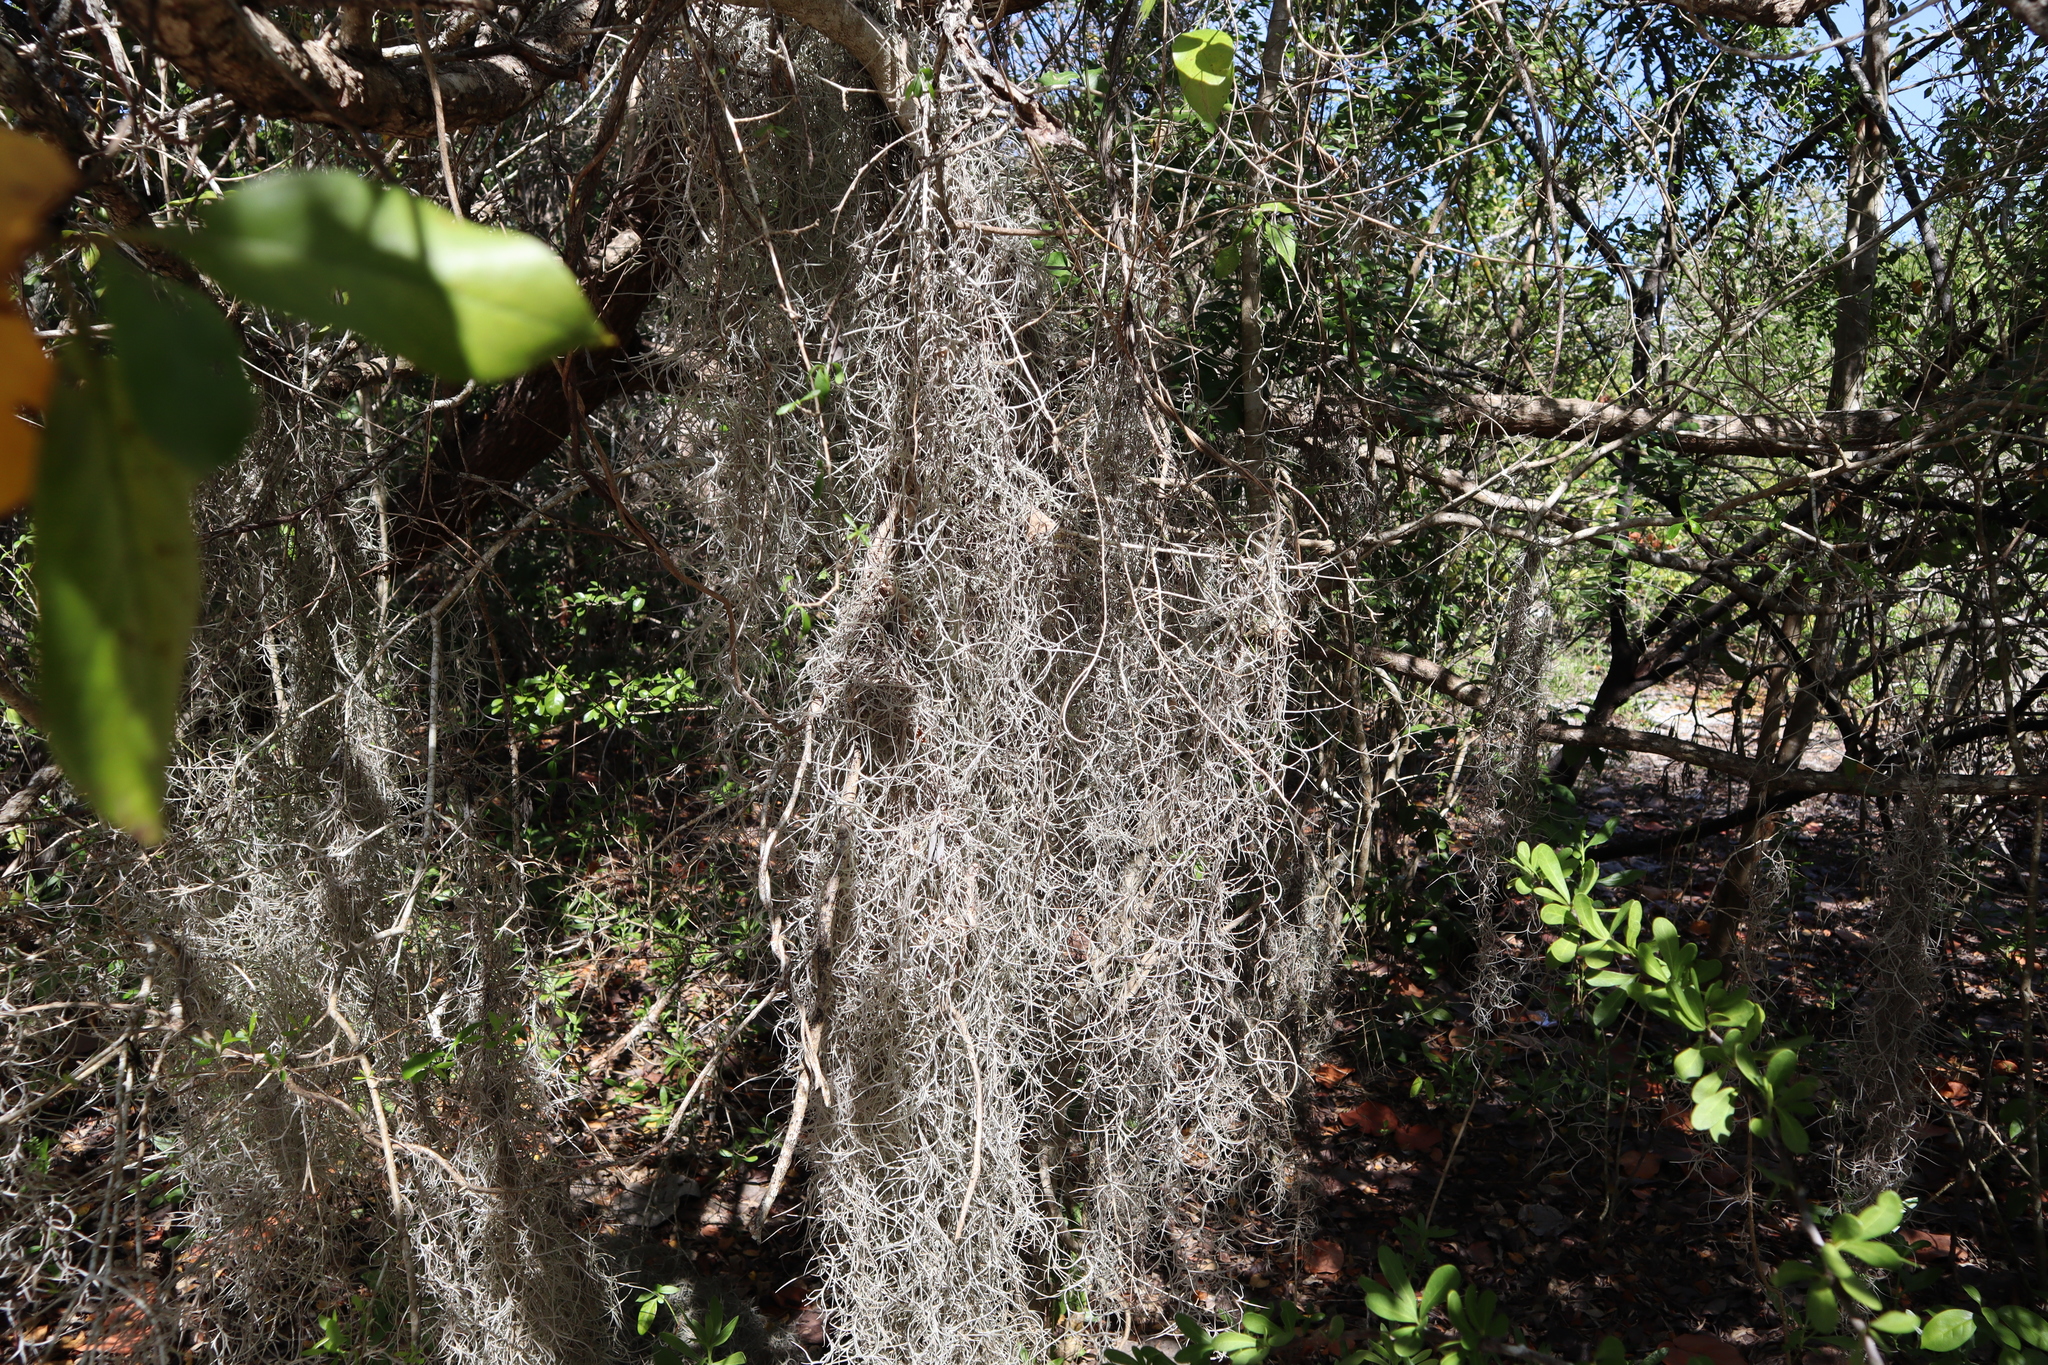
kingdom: Plantae
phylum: Tracheophyta
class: Liliopsida
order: Poales
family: Bromeliaceae
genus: Tillandsia
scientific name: Tillandsia usneoides
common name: Spanish moss
